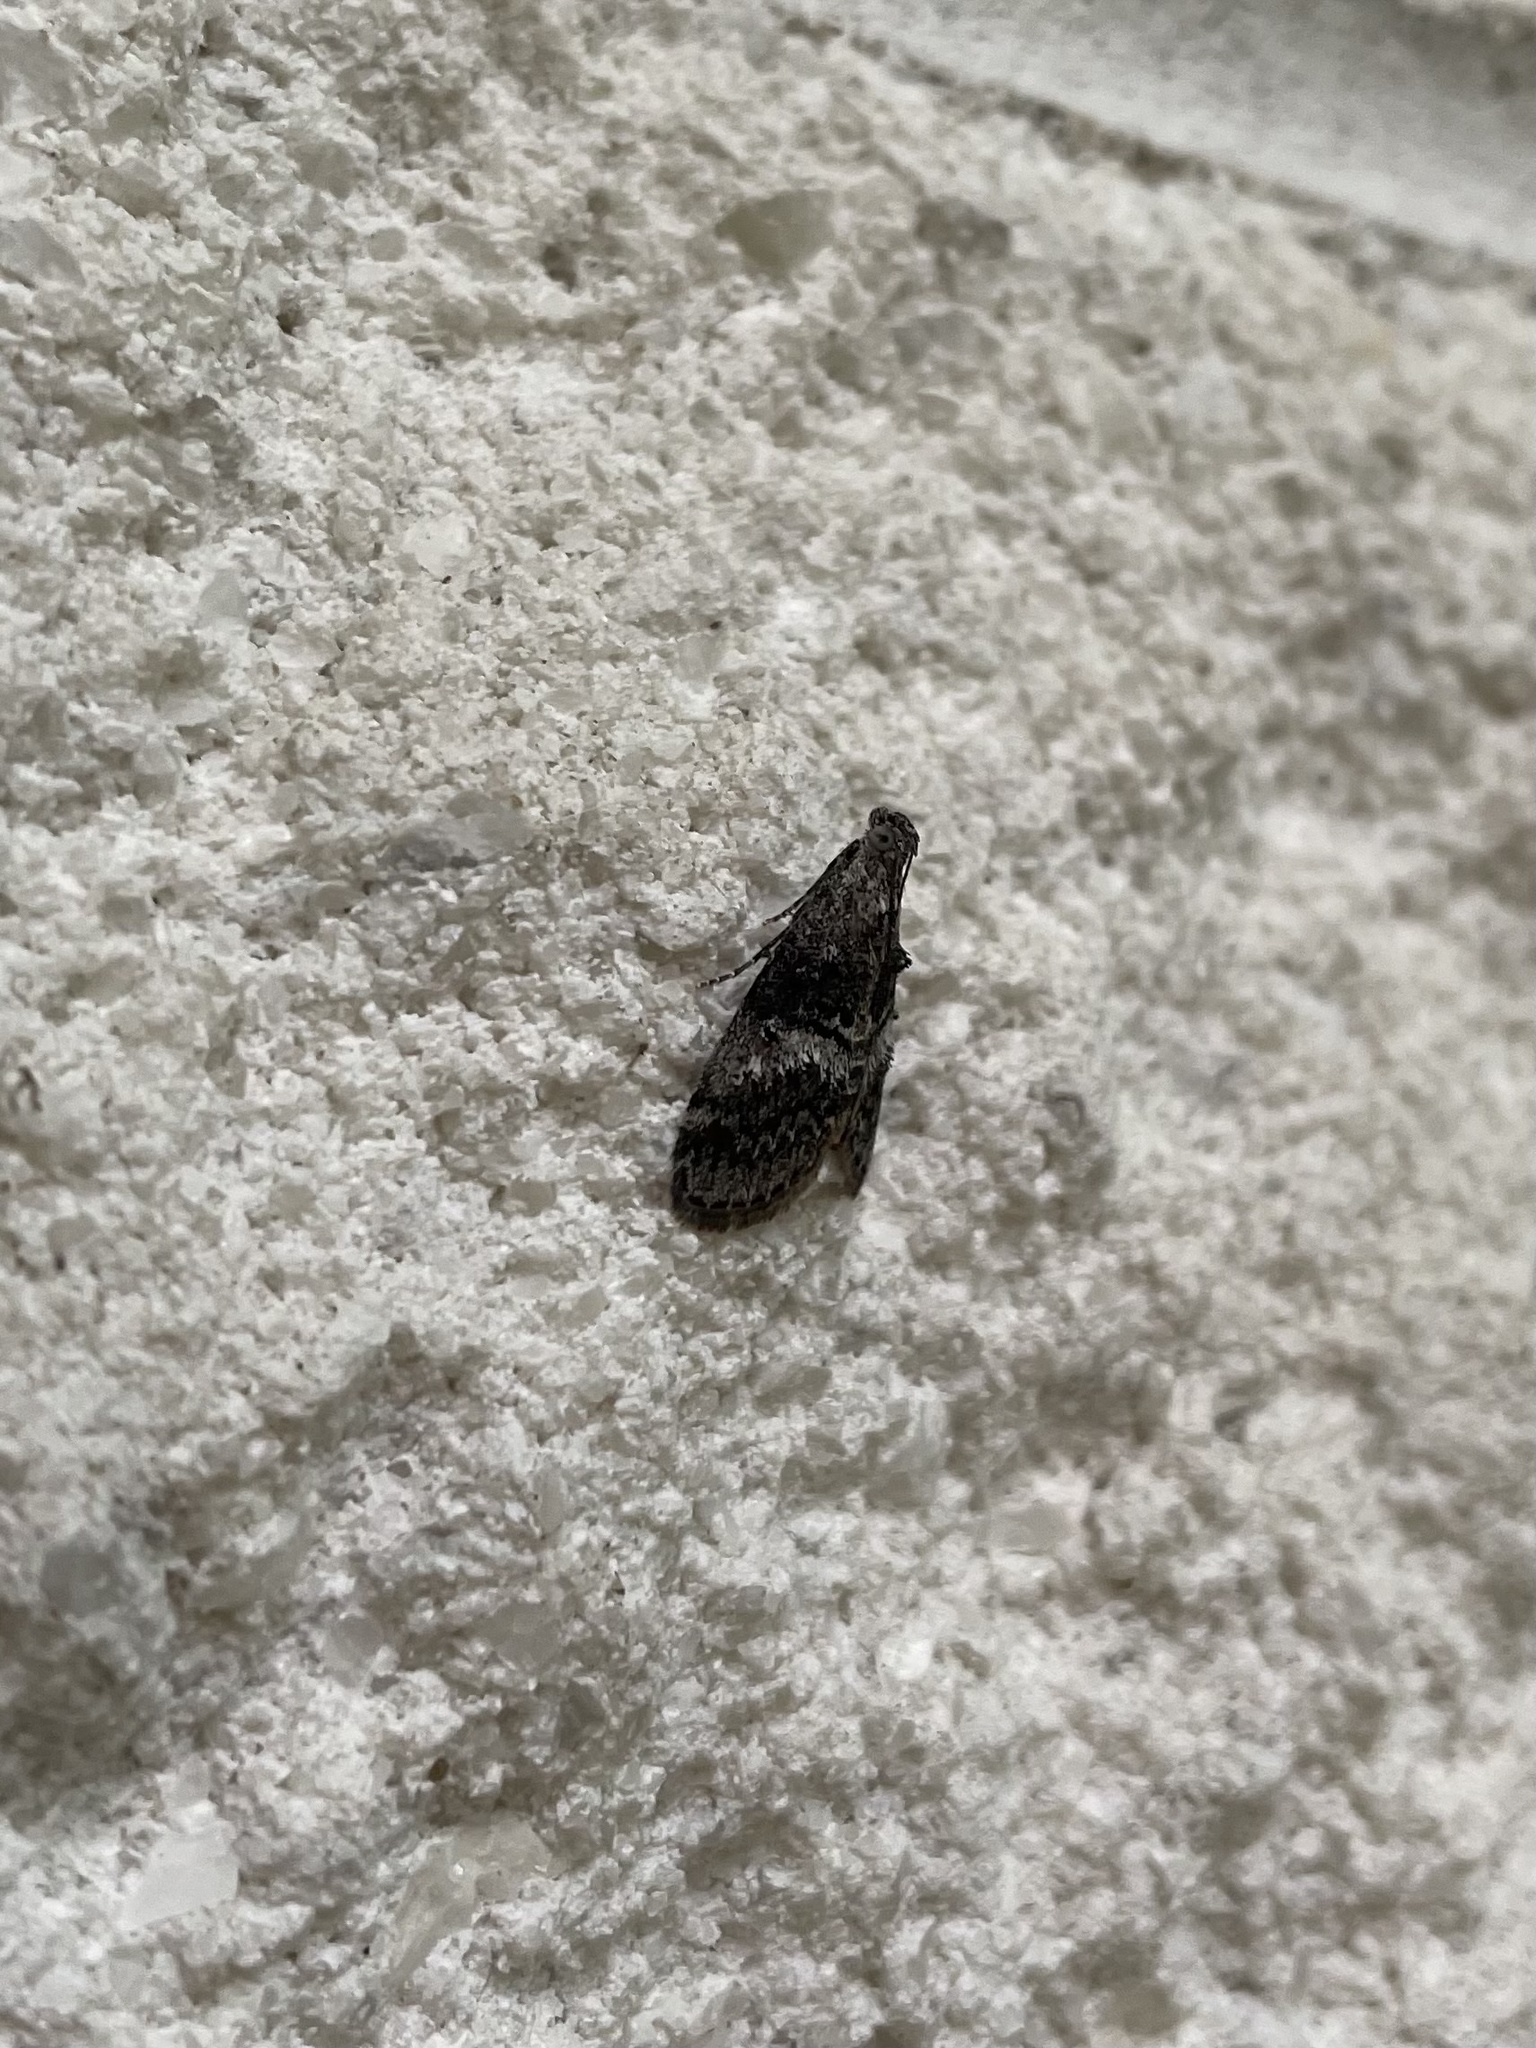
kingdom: Animalia
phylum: Arthropoda
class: Insecta
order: Lepidoptera
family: Pyralidae
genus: Pococera
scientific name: Pococera asperatella
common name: Maple webworm moth
